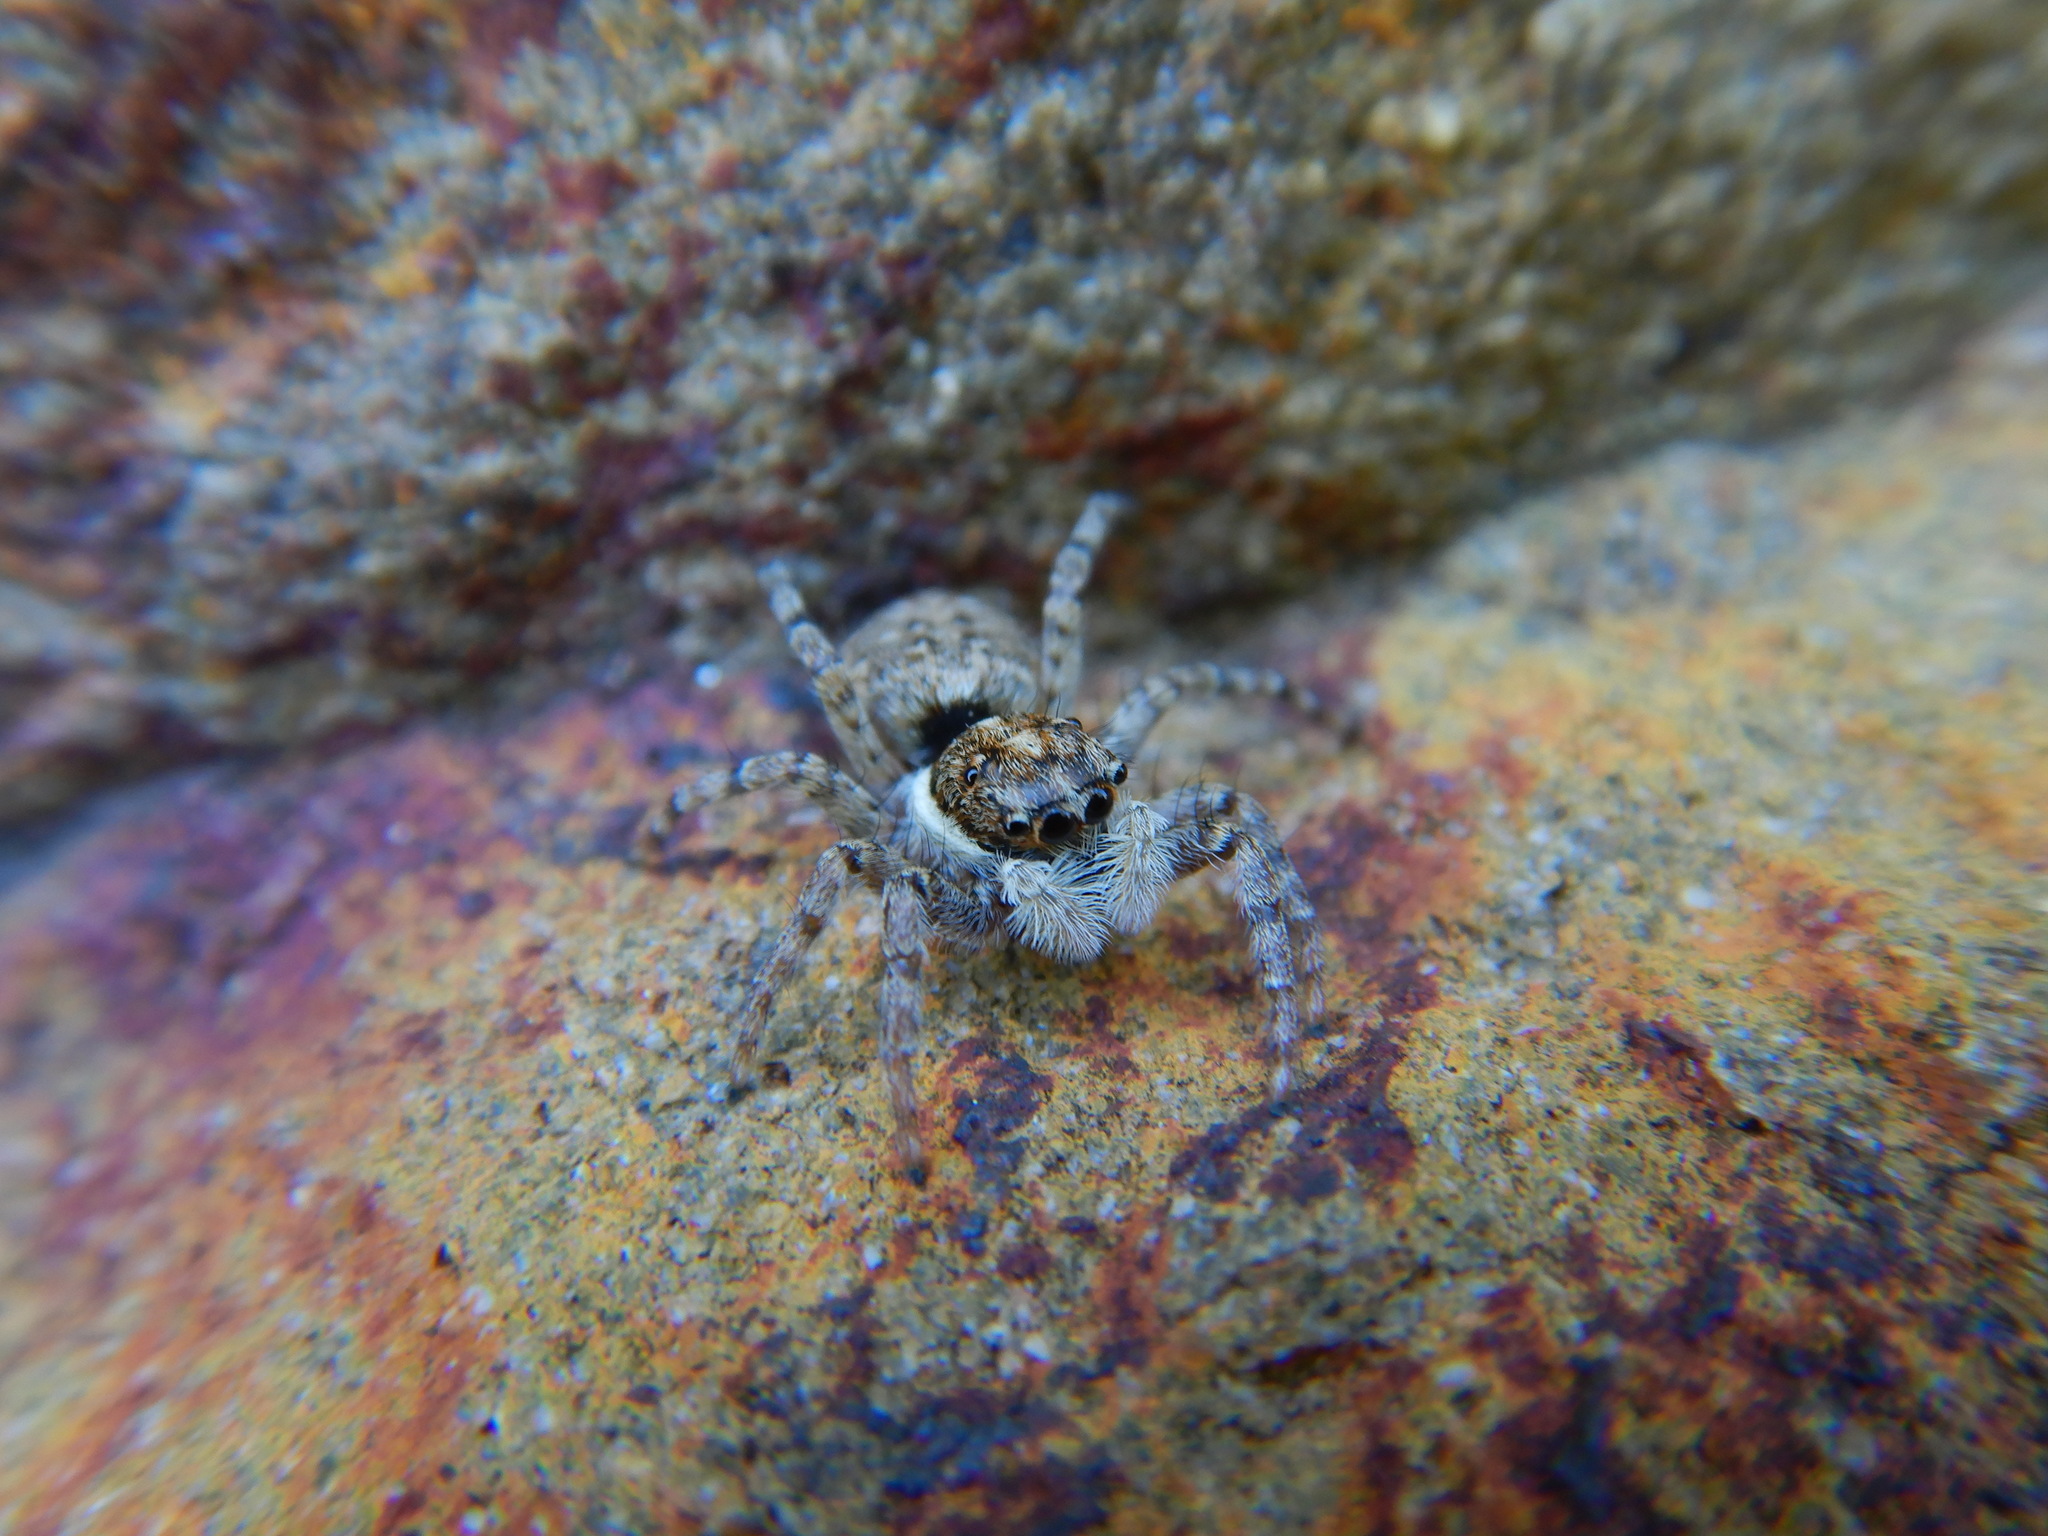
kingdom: Animalia
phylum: Arthropoda
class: Arachnida
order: Araneae
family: Salticidae
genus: Menemerus
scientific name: Menemerus semilimbatus
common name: Jumping spider
